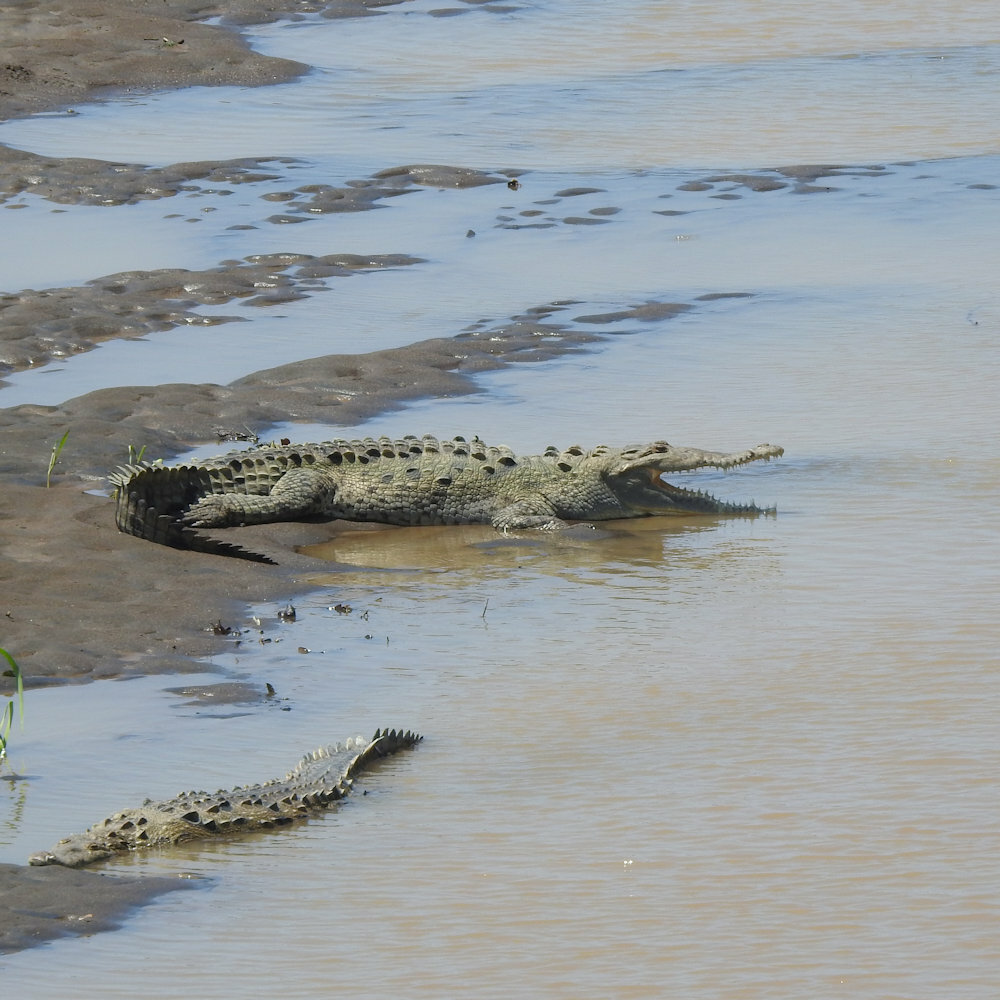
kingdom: Animalia
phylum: Chordata
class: Crocodylia
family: Crocodylidae
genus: Crocodylus
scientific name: Crocodylus acutus
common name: American crocodile
